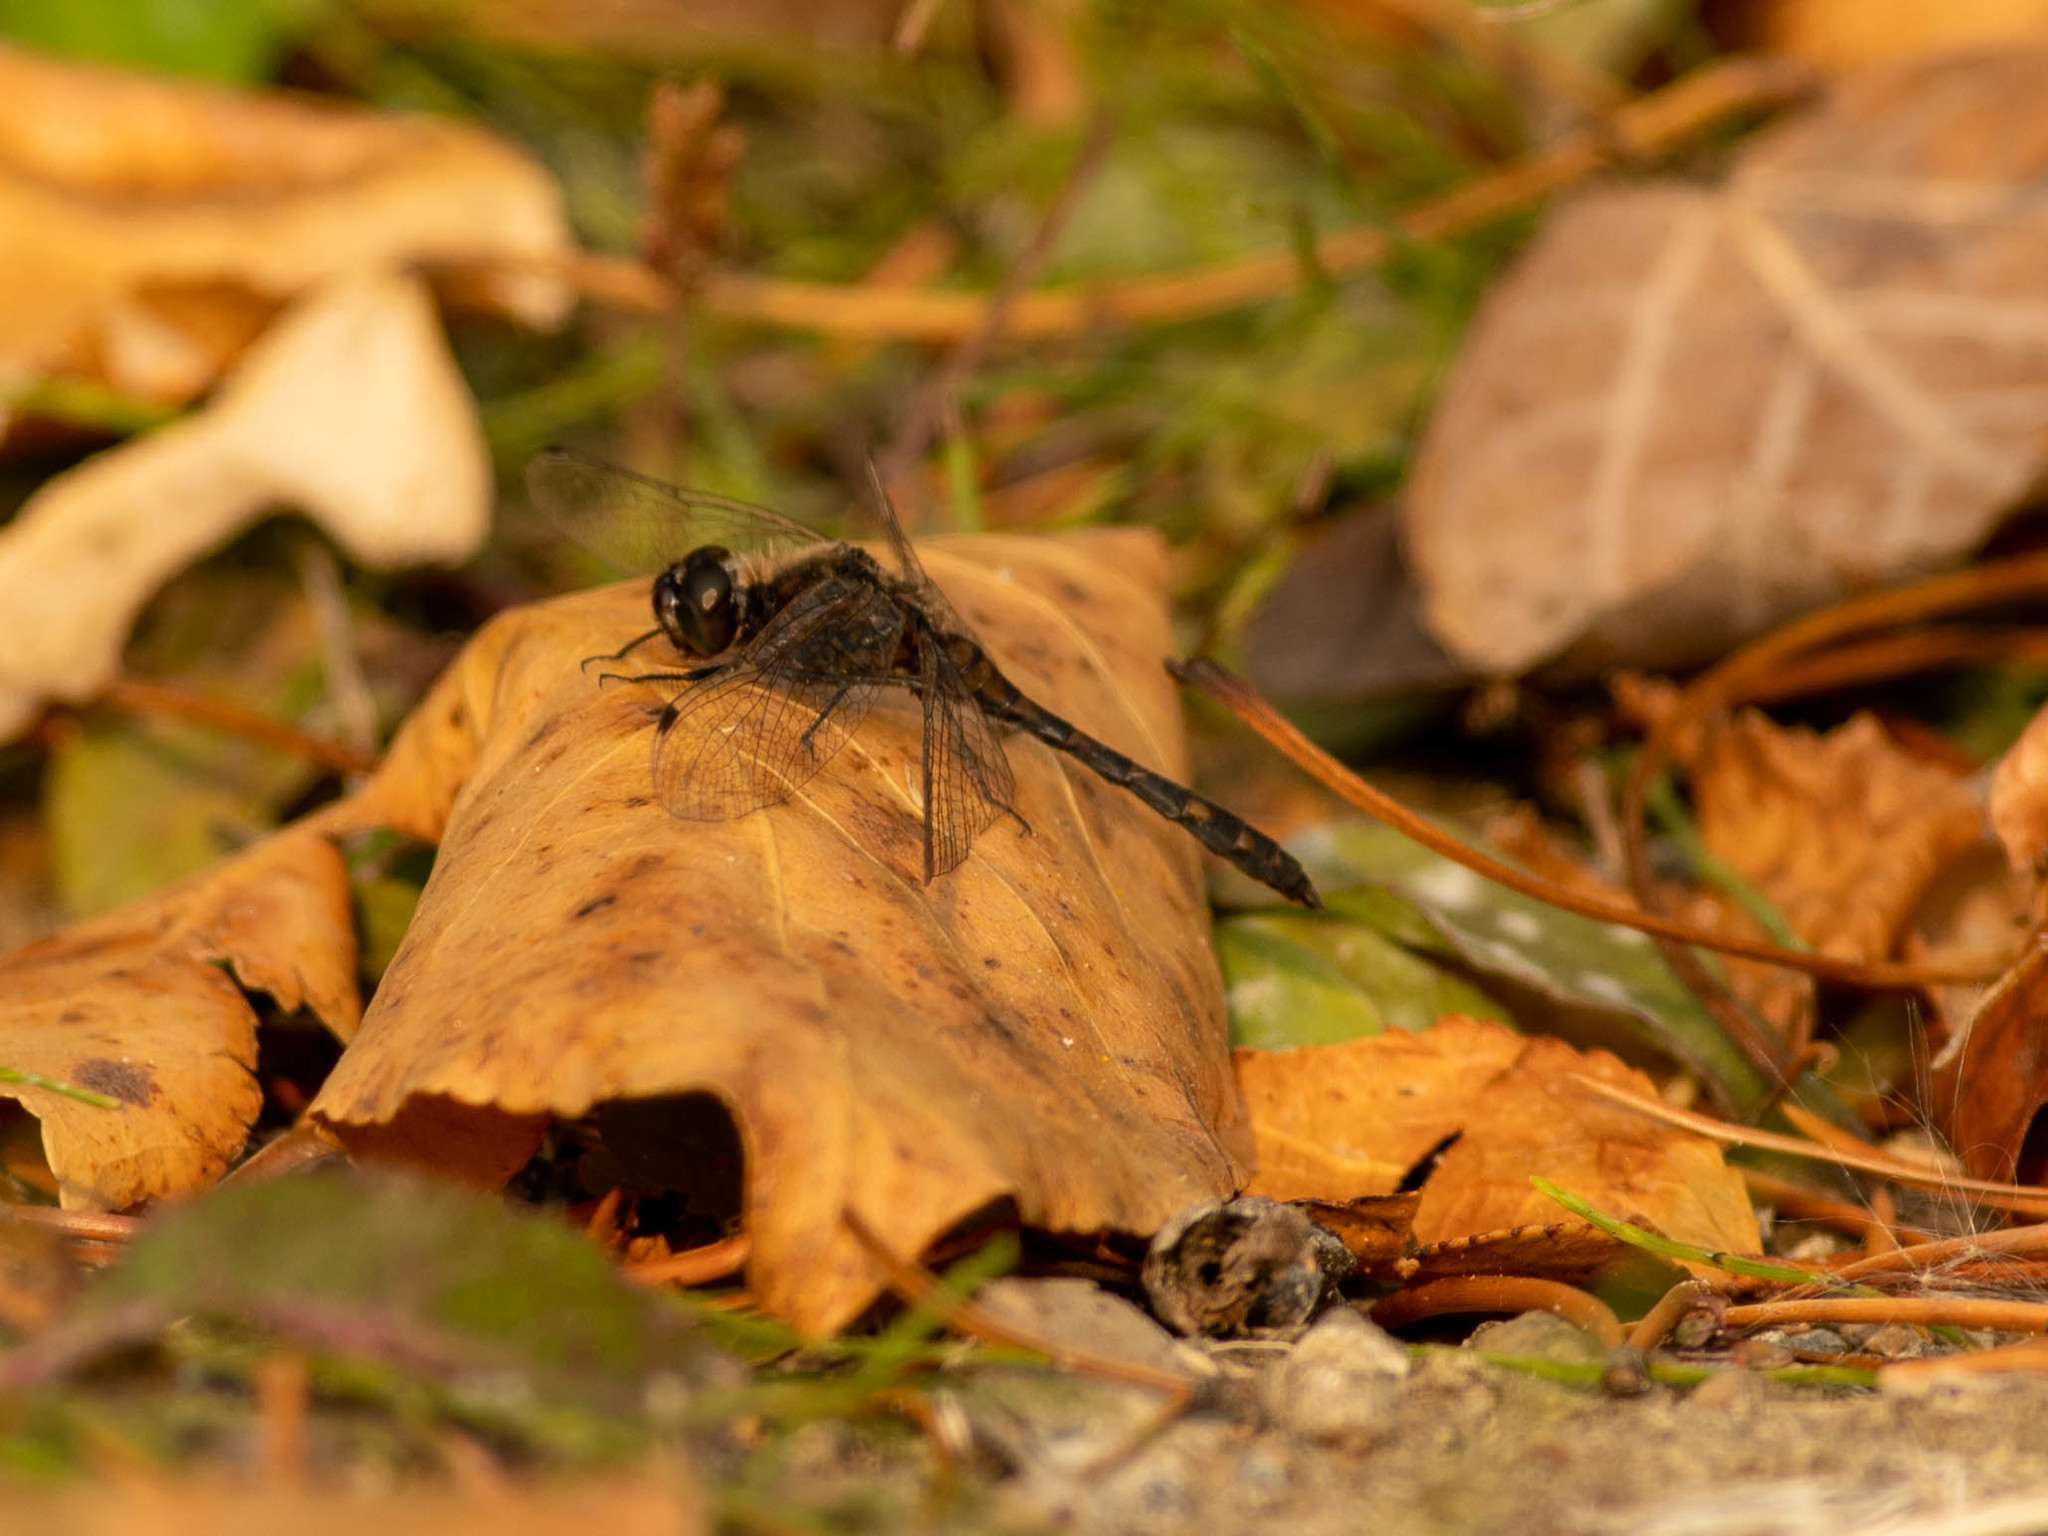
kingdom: Animalia
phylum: Arthropoda
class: Insecta
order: Odonata
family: Libellulidae
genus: Sympetrum
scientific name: Sympetrum danae
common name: Black darter
